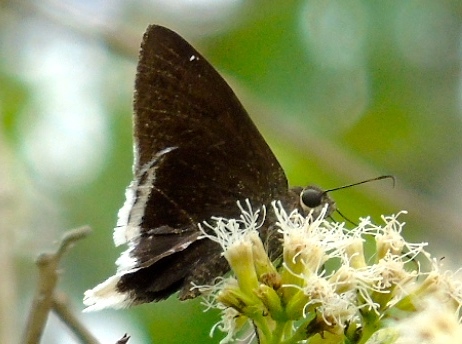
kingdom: Animalia
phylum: Arthropoda
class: Insecta
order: Lepidoptera
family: Hesperiidae
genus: Achalarus
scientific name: Achalarus Murgaria albociliatus
